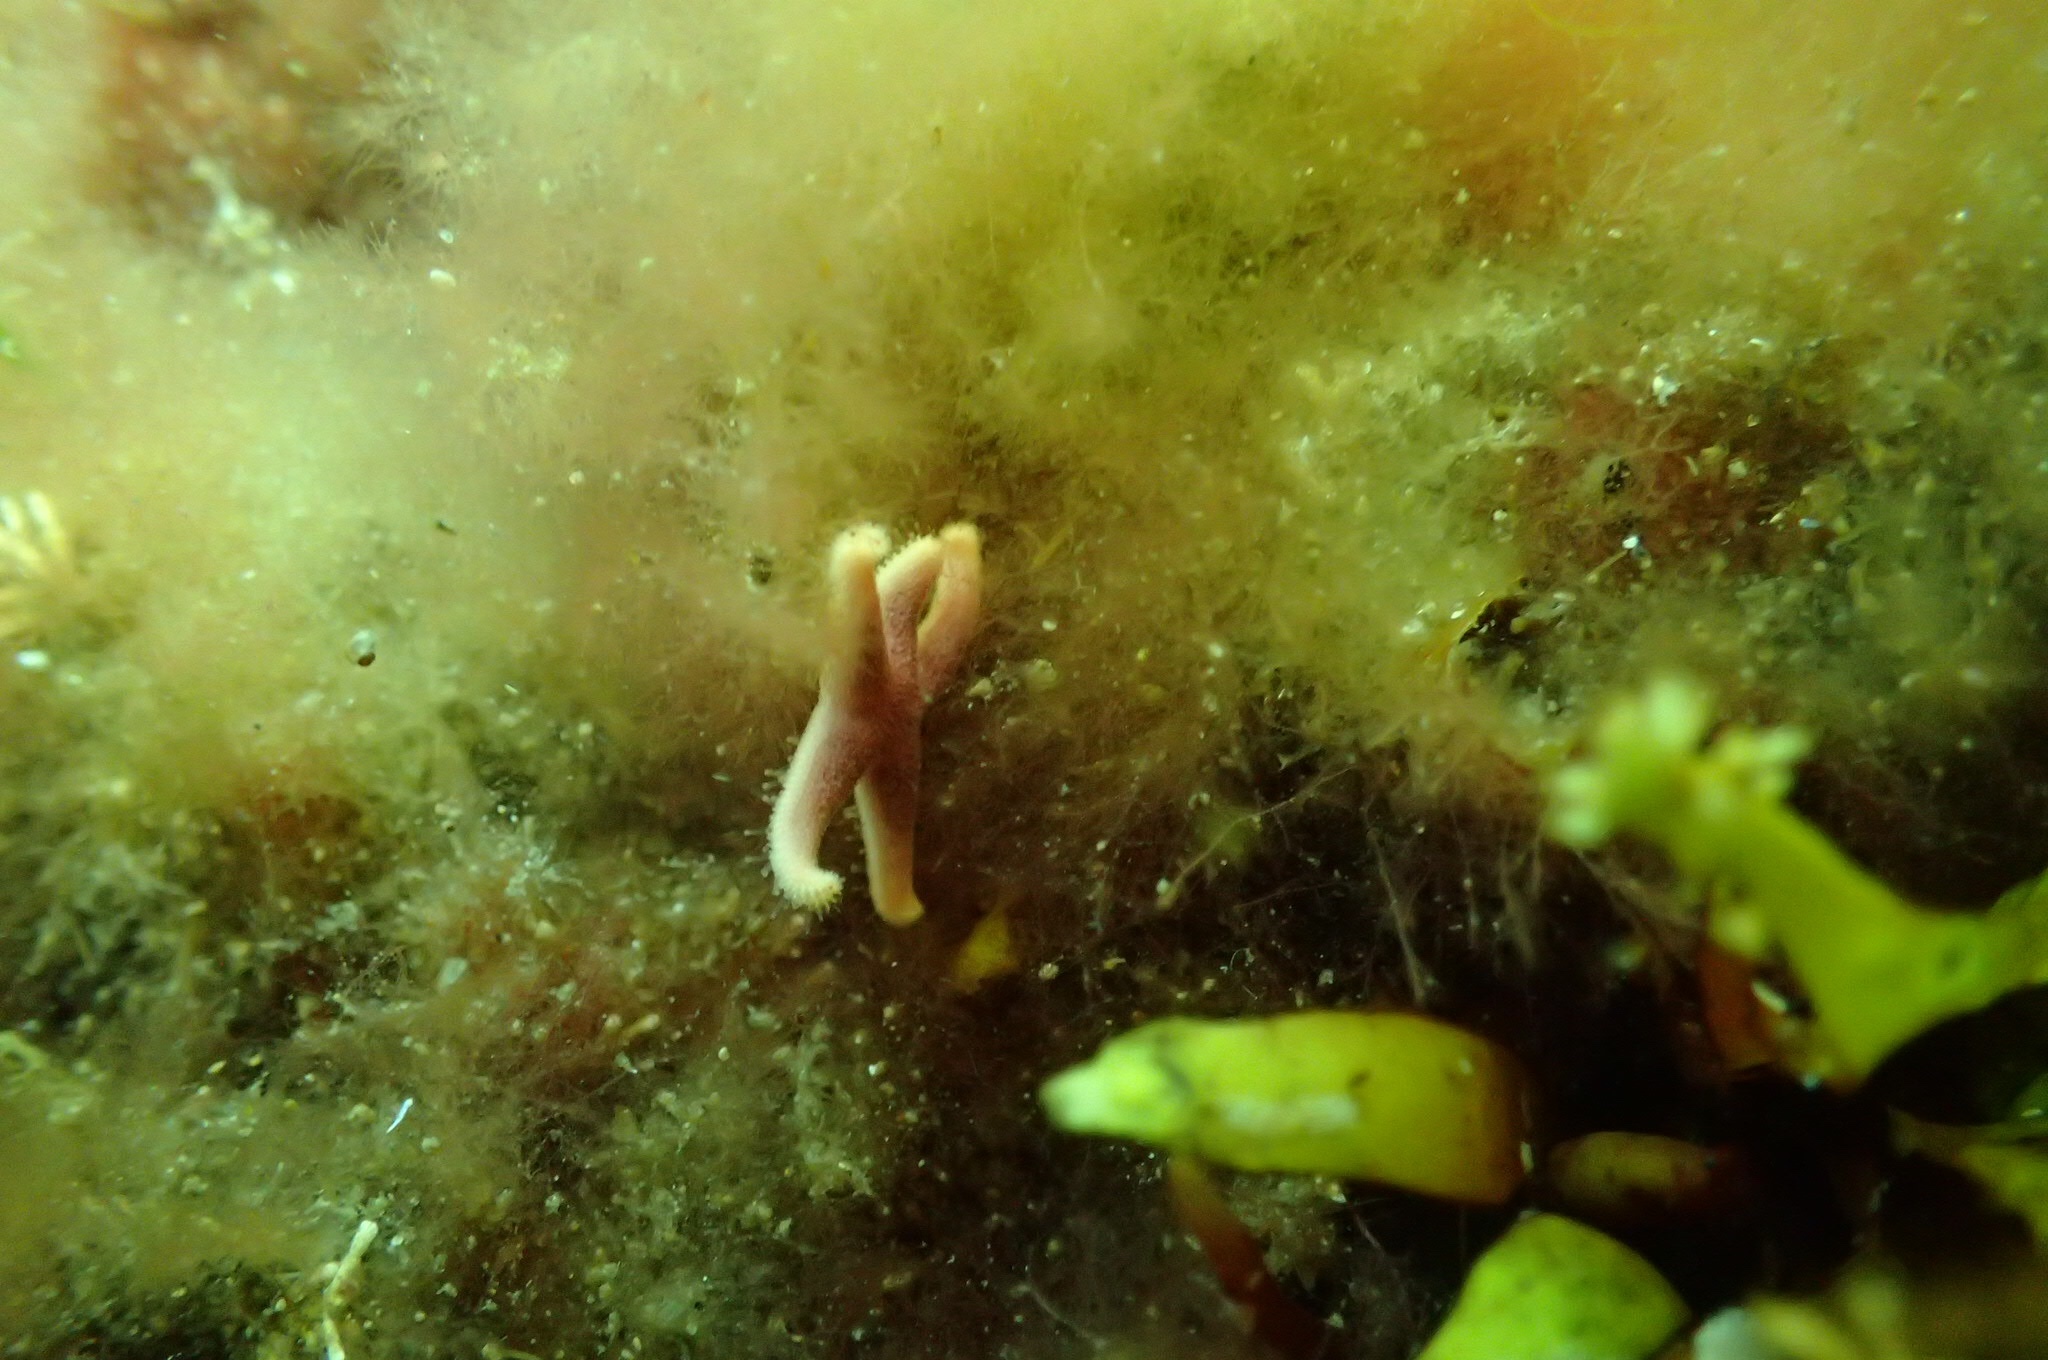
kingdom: Animalia
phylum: Echinodermata
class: Asteroidea
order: Spinulosida
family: Echinasteridae
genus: Henricia
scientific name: Henricia sanguinolenta
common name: Blood star
